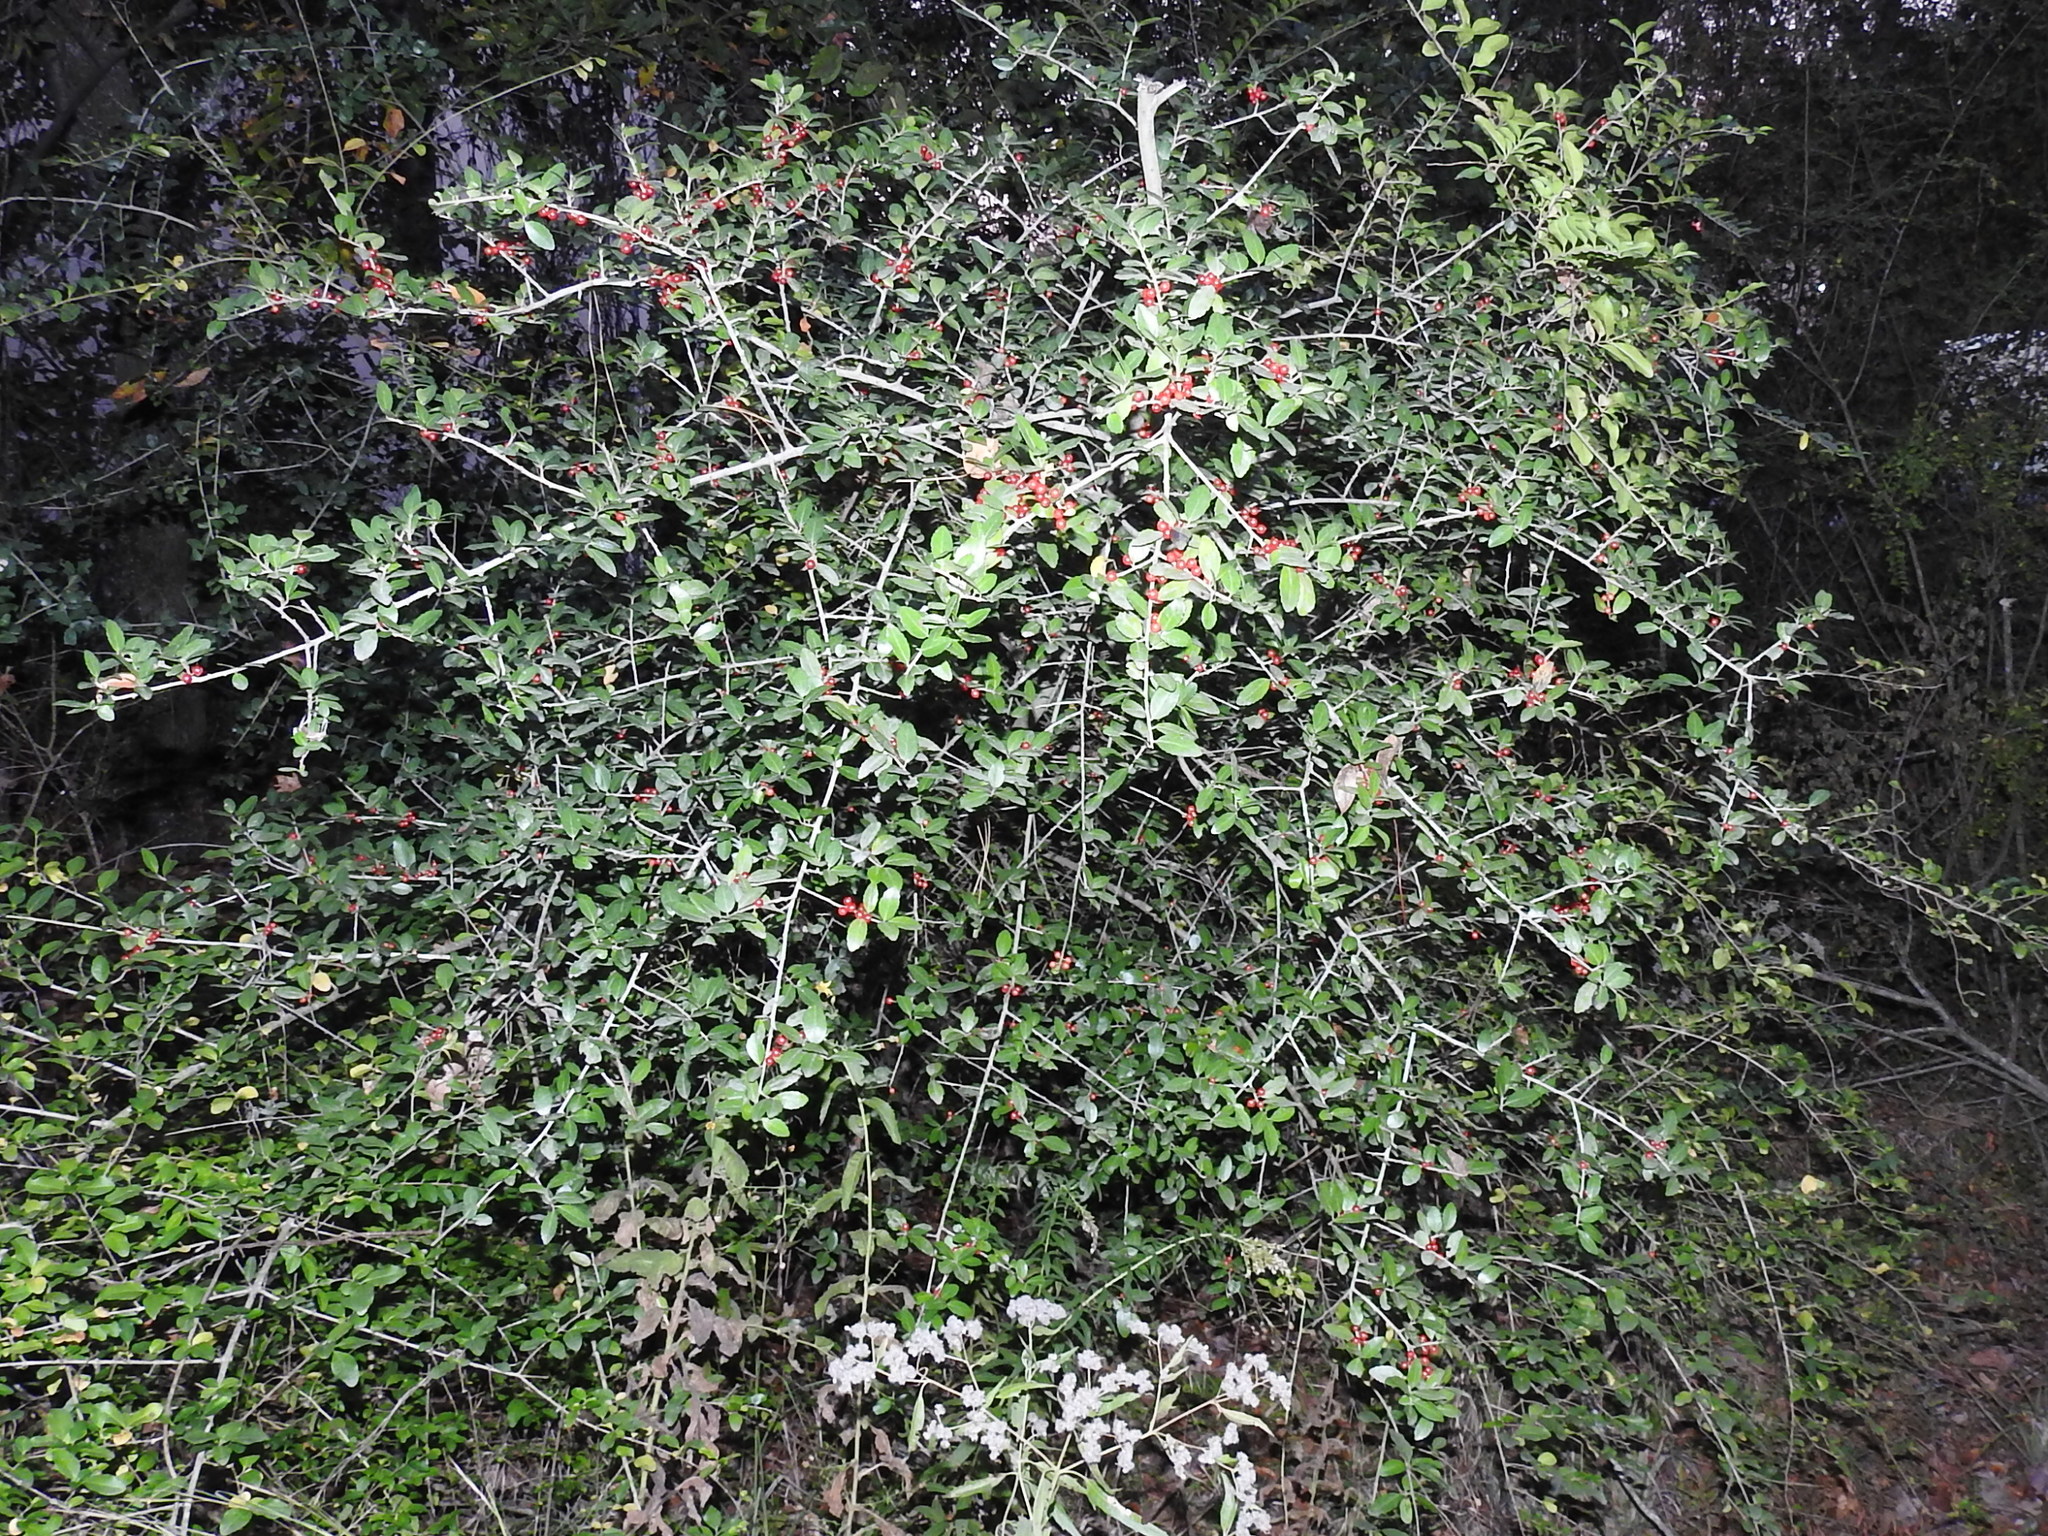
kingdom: Plantae
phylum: Tracheophyta
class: Magnoliopsida
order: Aquifoliales
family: Aquifoliaceae
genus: Ilex
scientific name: Ilex vomitoria
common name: Yaupon holly
